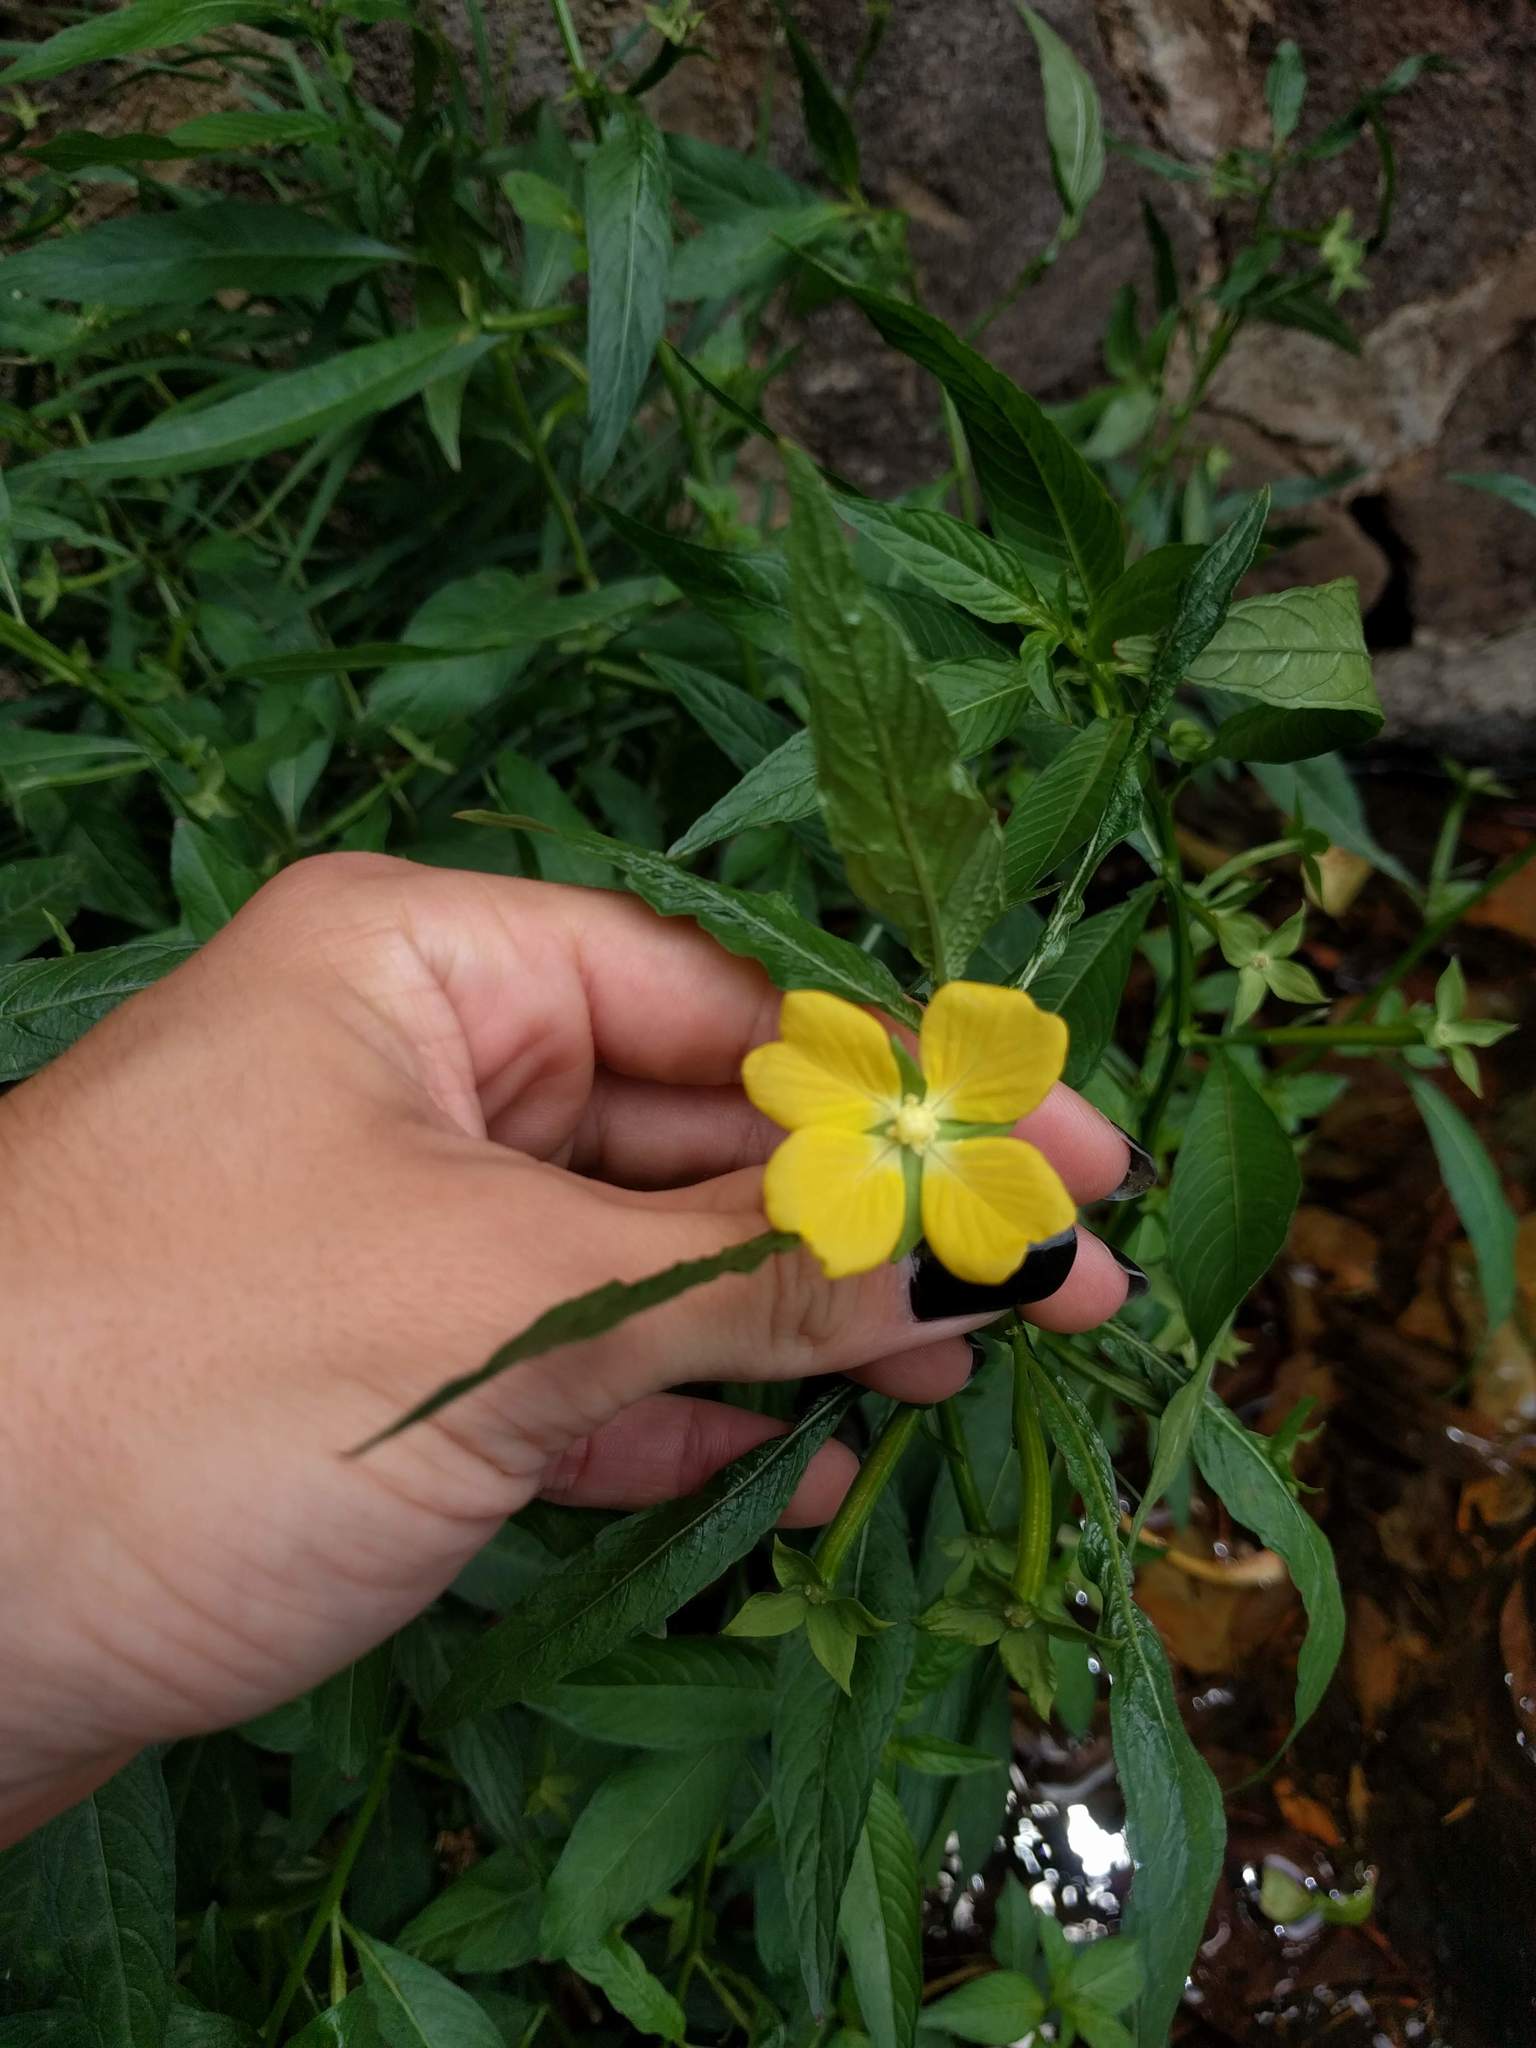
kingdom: Plantae
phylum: Tracheophyta
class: Magnoliopsida
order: Myrtales
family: Onagraceae
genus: Ludwigia
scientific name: Ludwigia octovalvis
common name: Water-primrose
